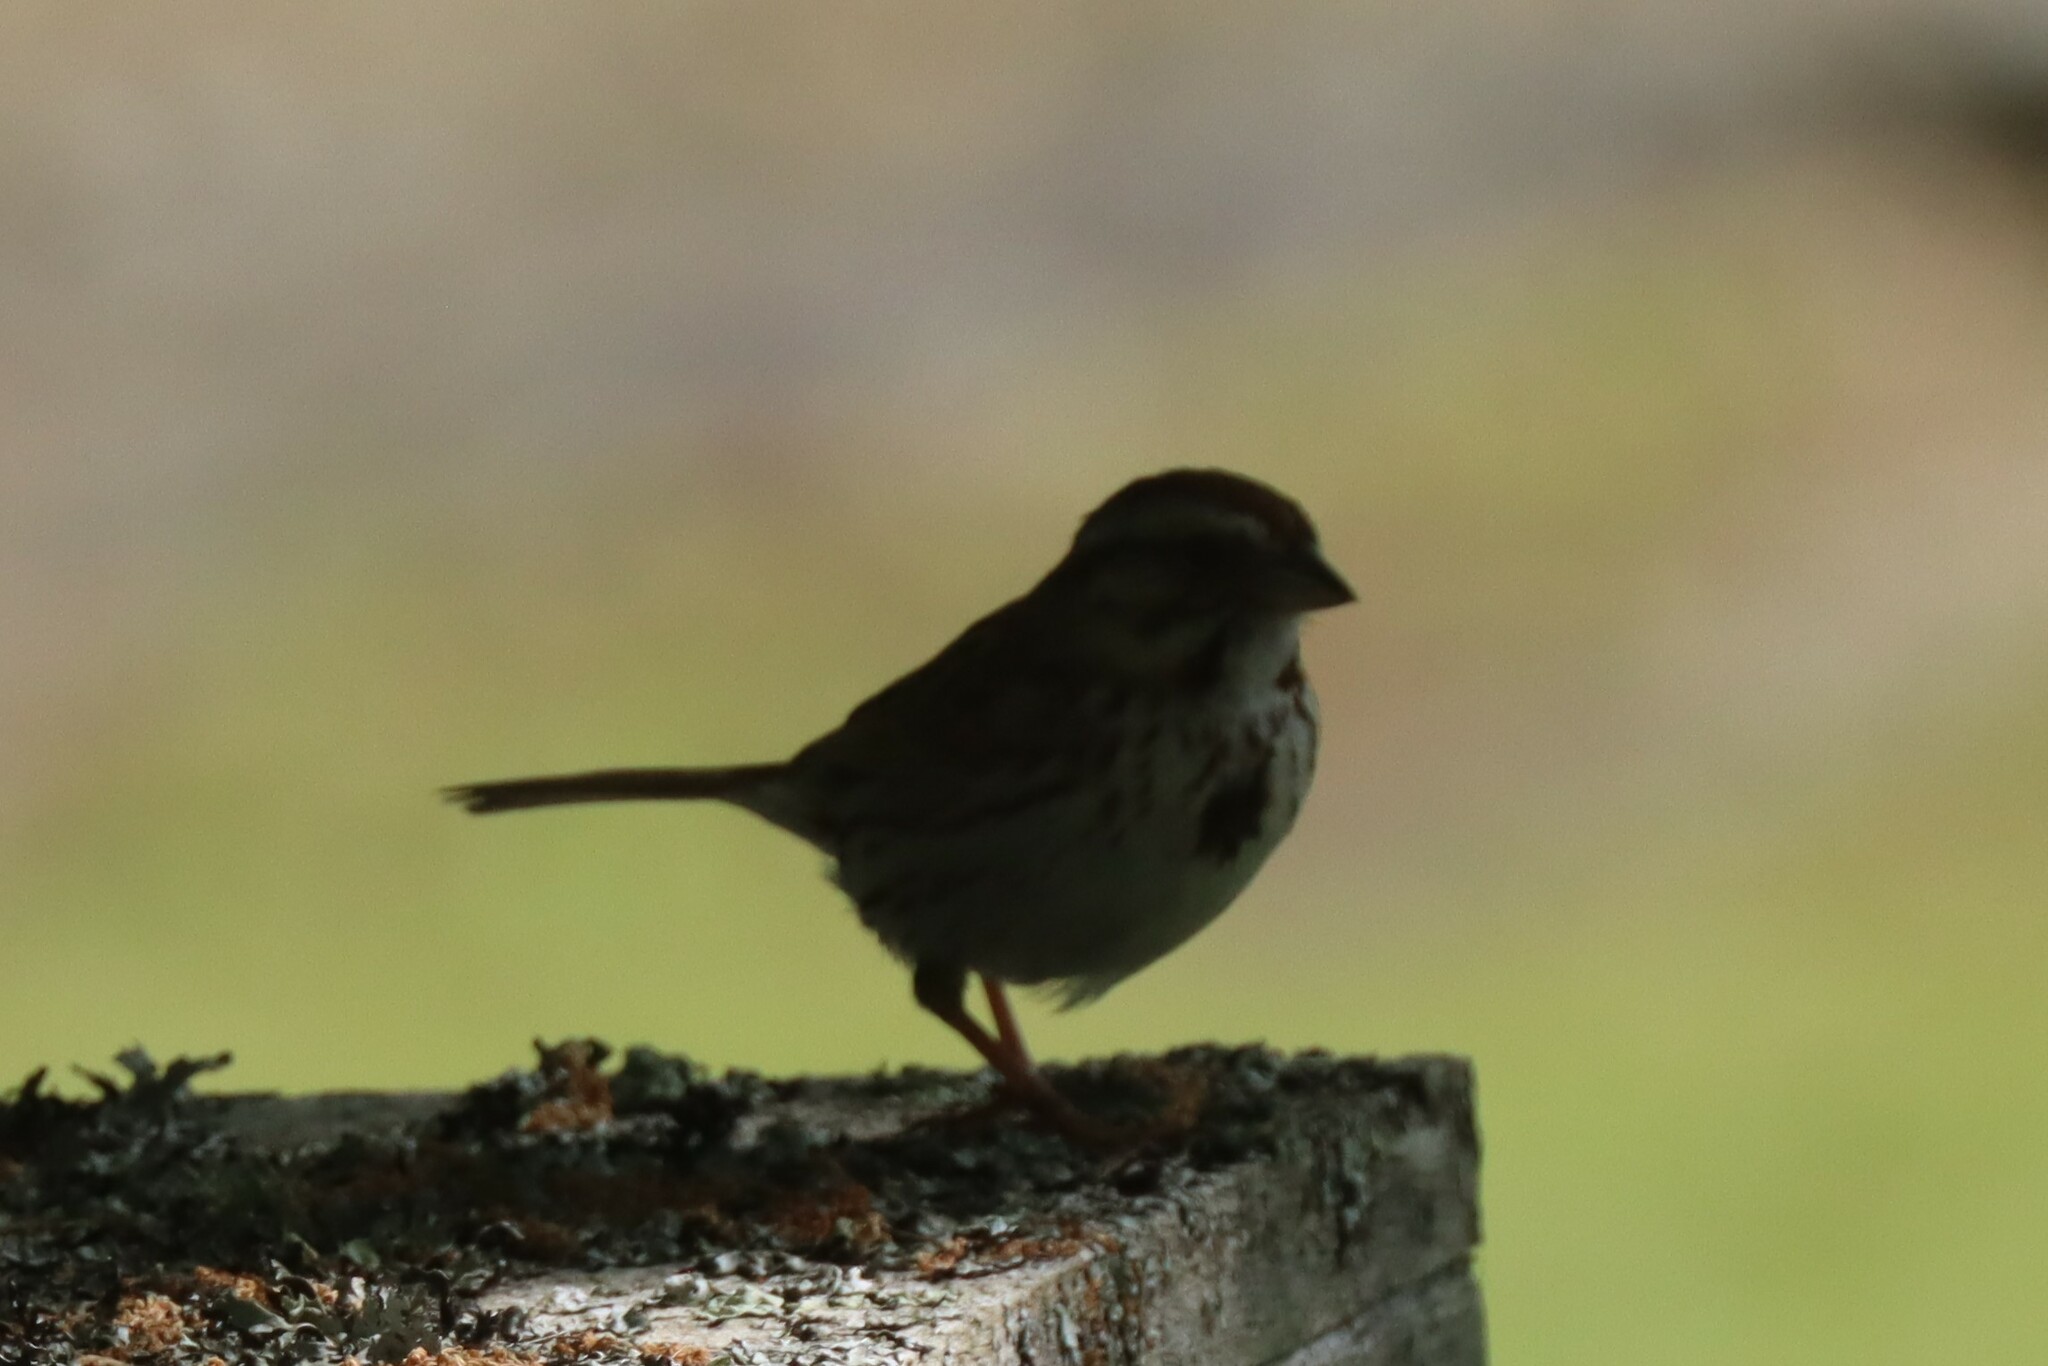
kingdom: Animalia
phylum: Chordata
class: Aves
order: Passeriformes
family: Passerellidae
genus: Melospiza
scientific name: Melospiza melodia
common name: Song sparrow
